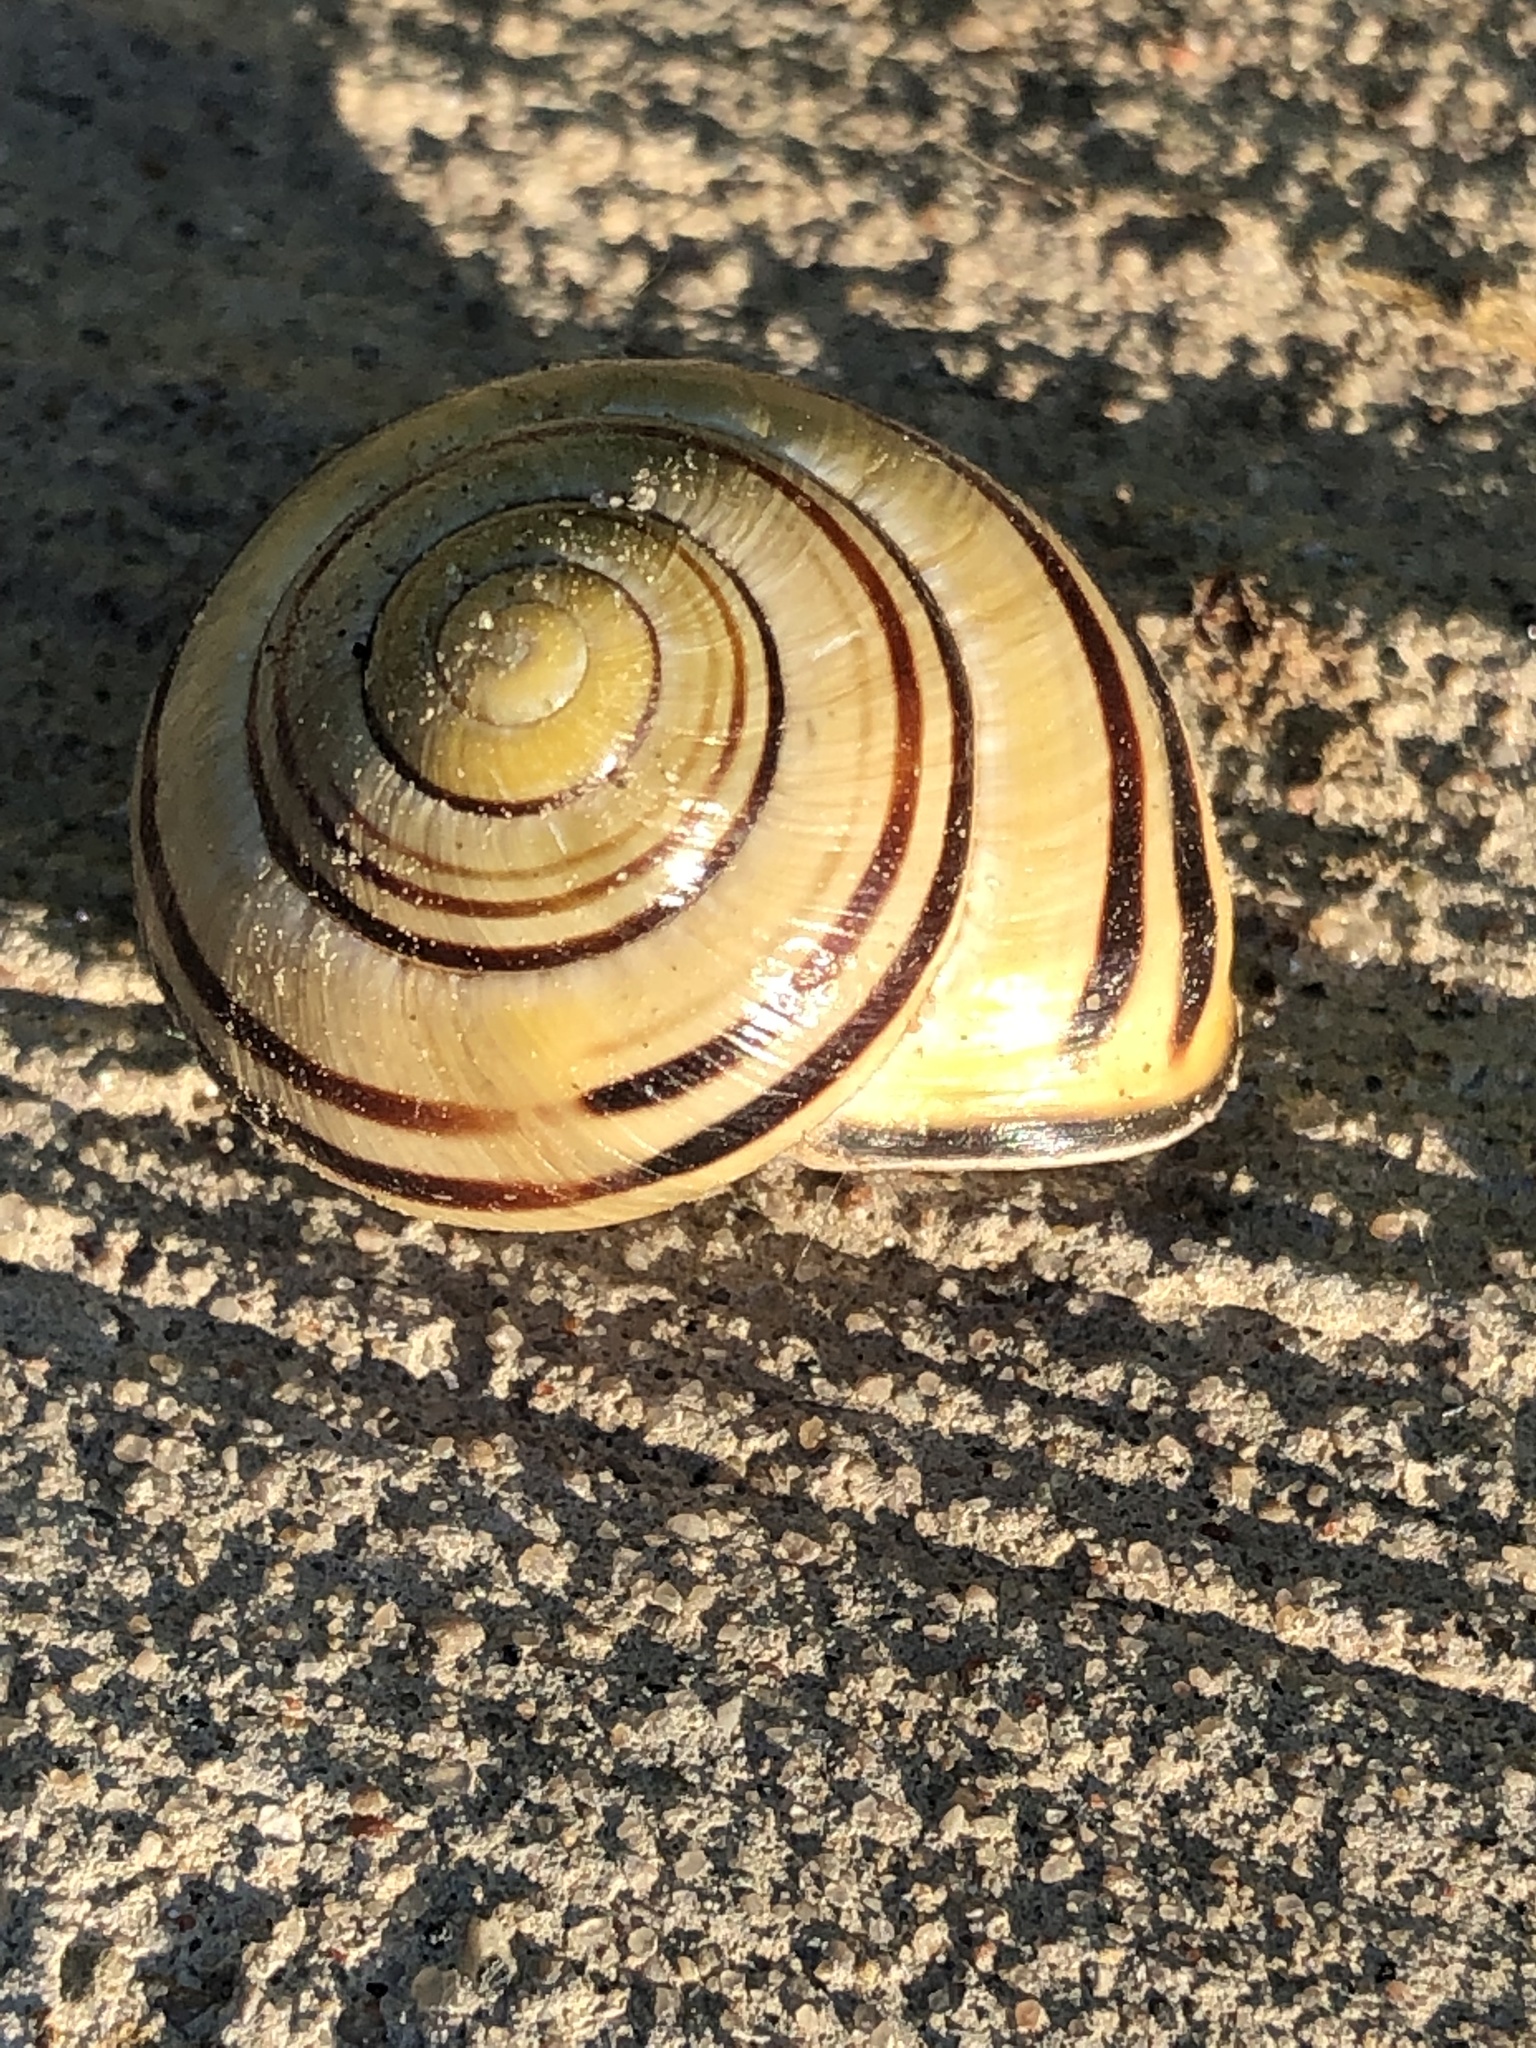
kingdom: Animalia
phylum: Mollusca
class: Gastropoda
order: Stylommatophora
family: Helicidae
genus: Cepaea
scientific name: Cepaea nemoralis
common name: Grovesnail
